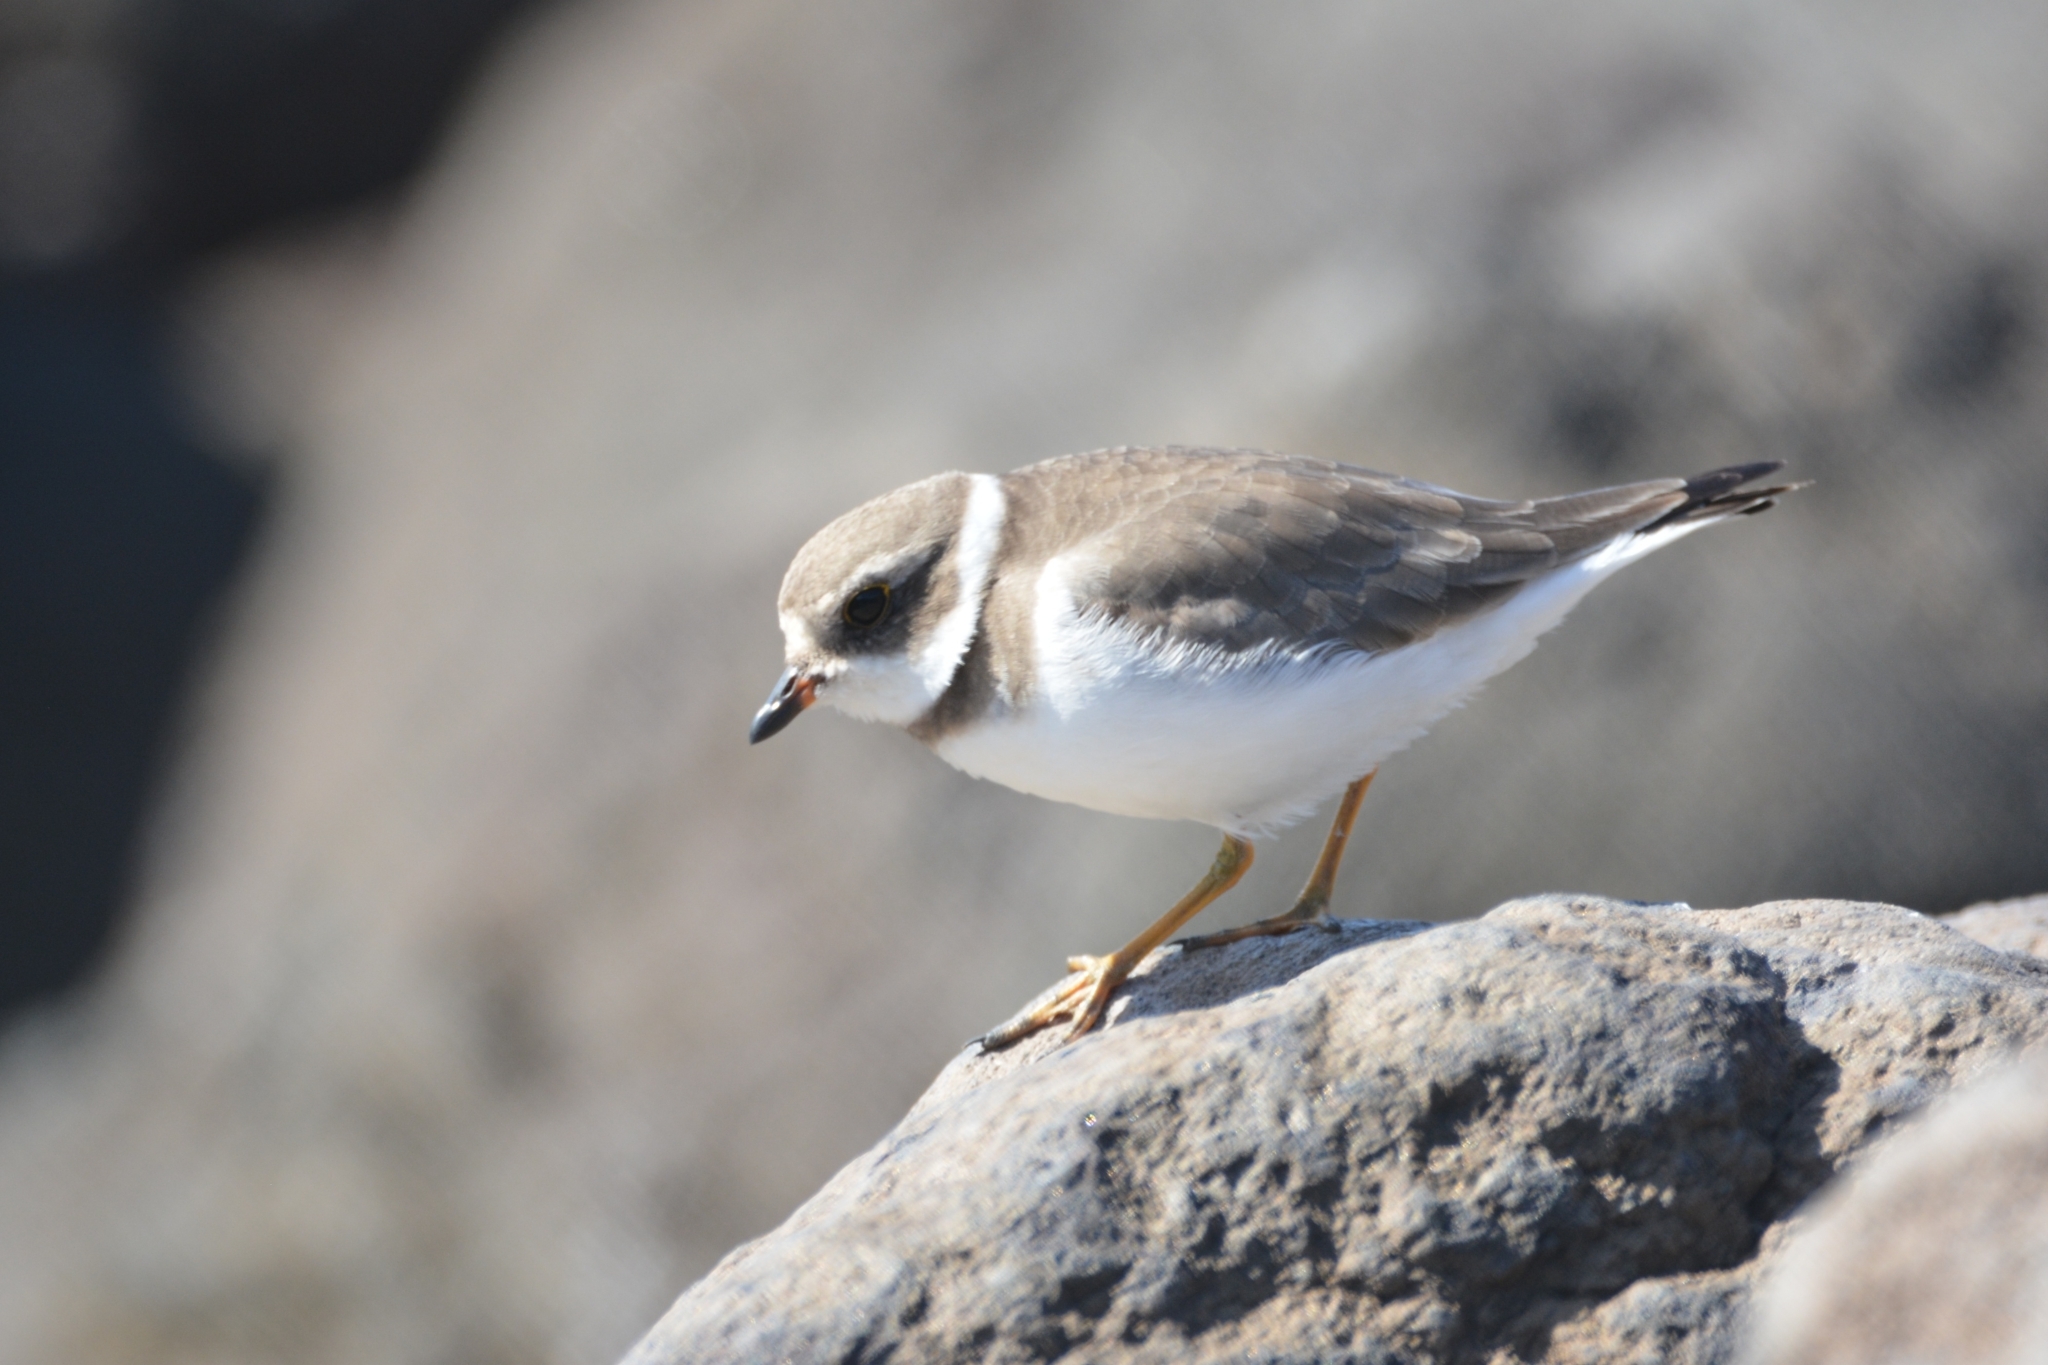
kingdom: Animalia
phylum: Chordata
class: Aves
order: Charadriiformes
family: Charadriidae
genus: Charadrius
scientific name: Charadrius semipalmatus
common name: Semipalmated plover
